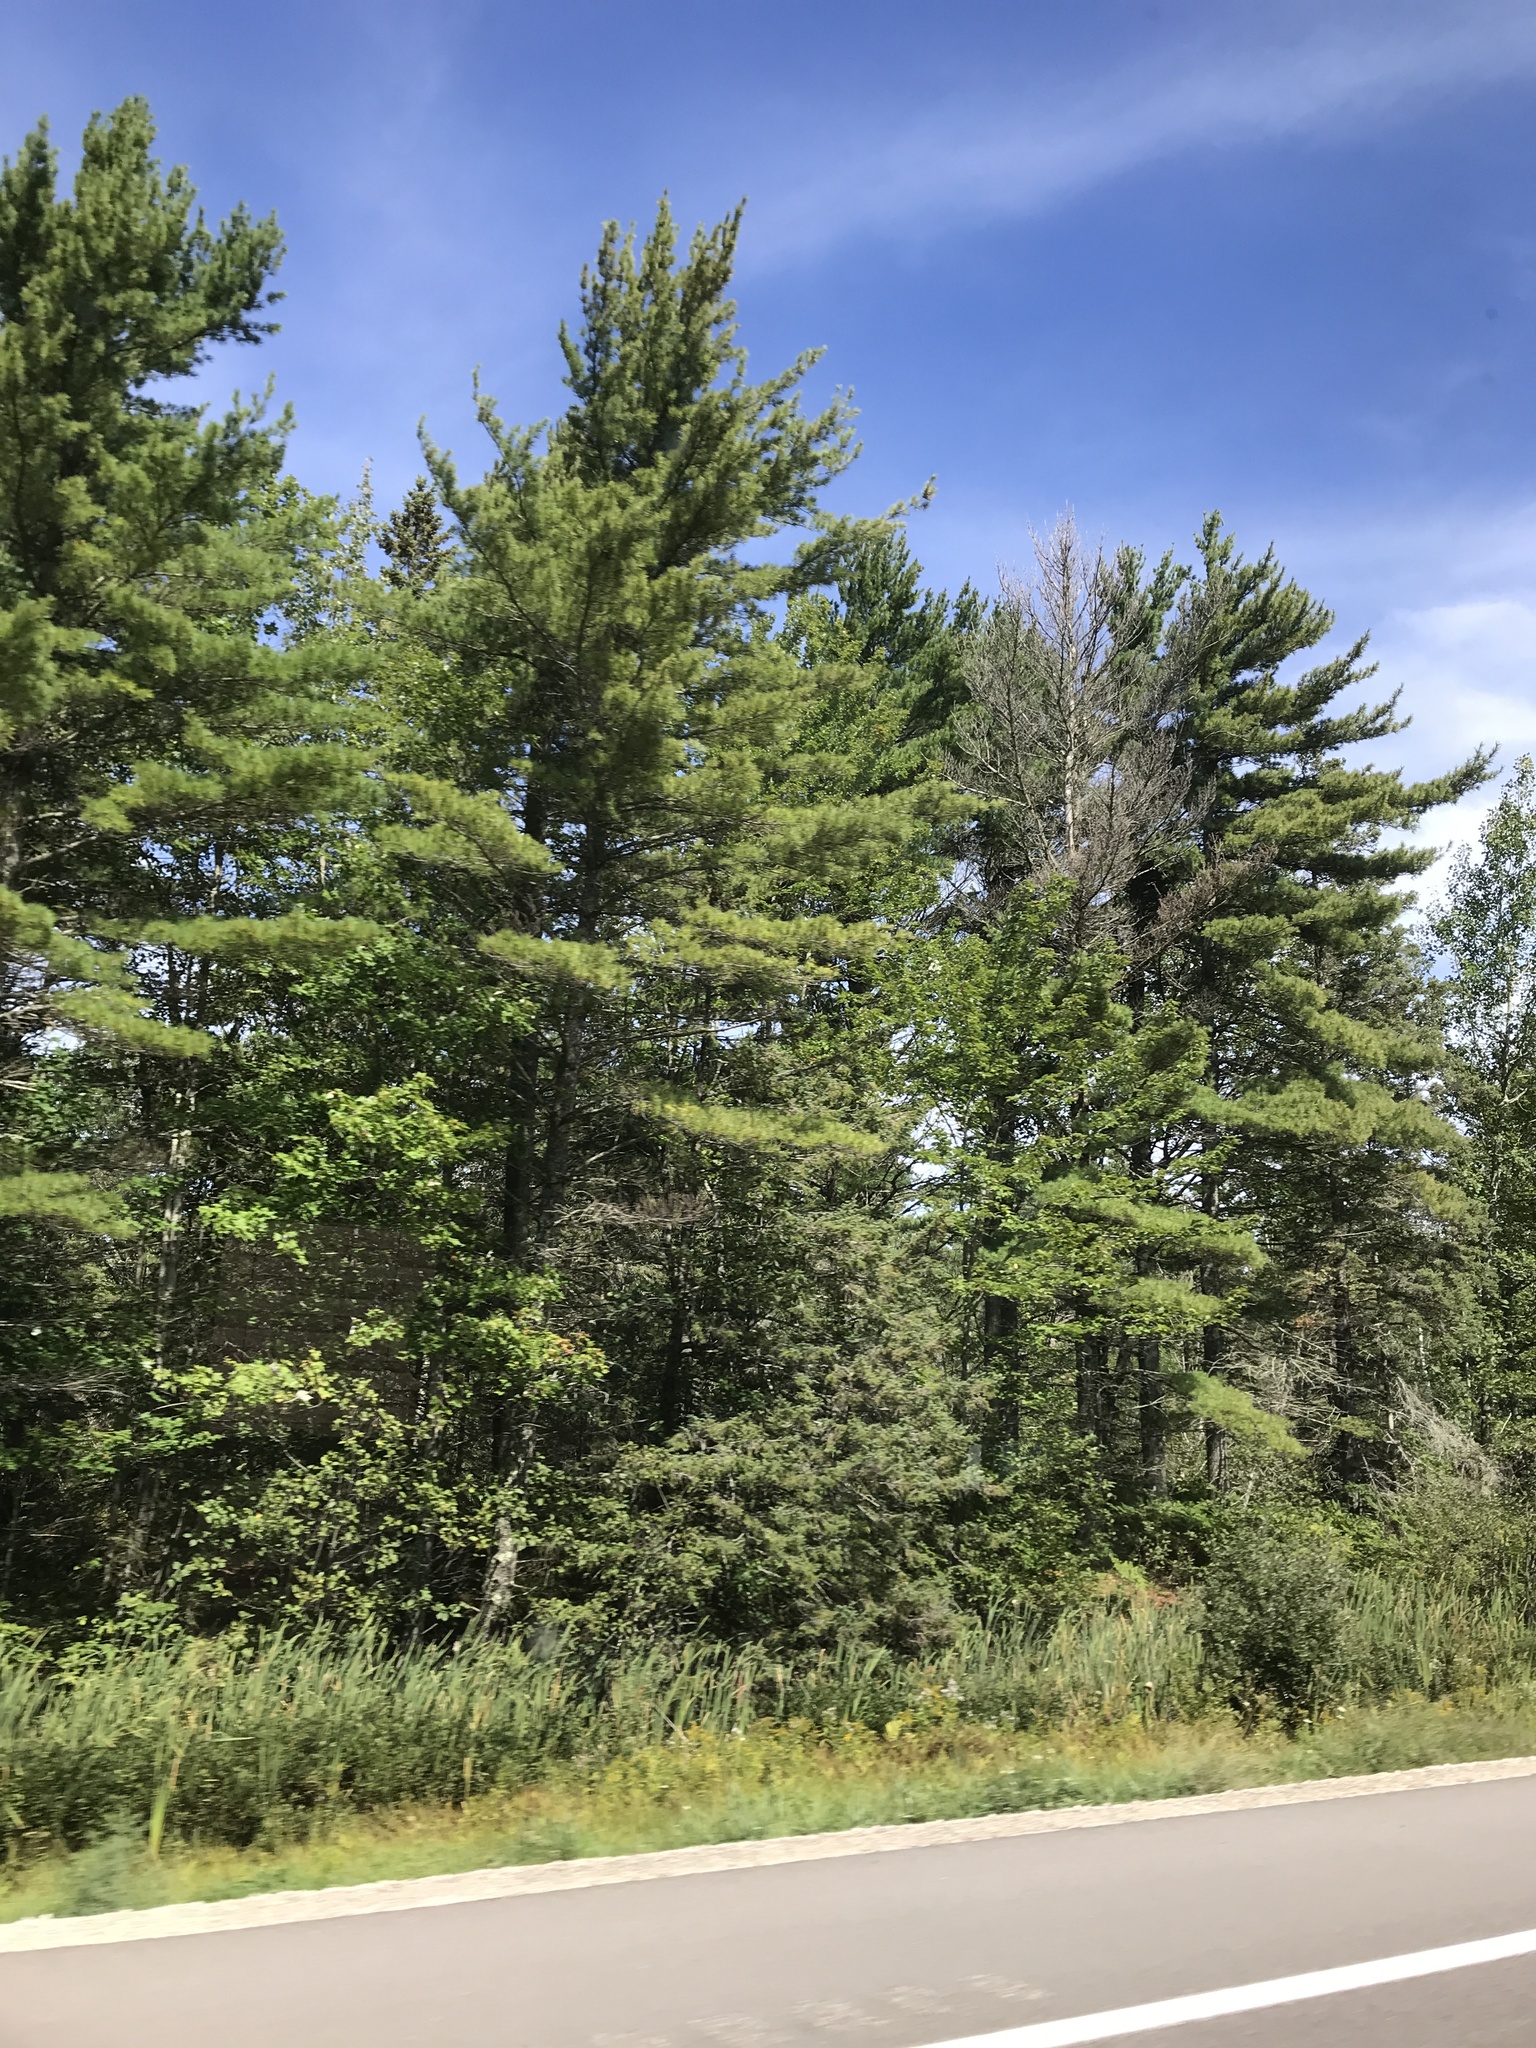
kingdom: Plantae
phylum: Tracheophyta
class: Pinopsida
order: Pinales
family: Pinaceae
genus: Pinus
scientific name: Pinus strobus
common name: Weymouth pine
